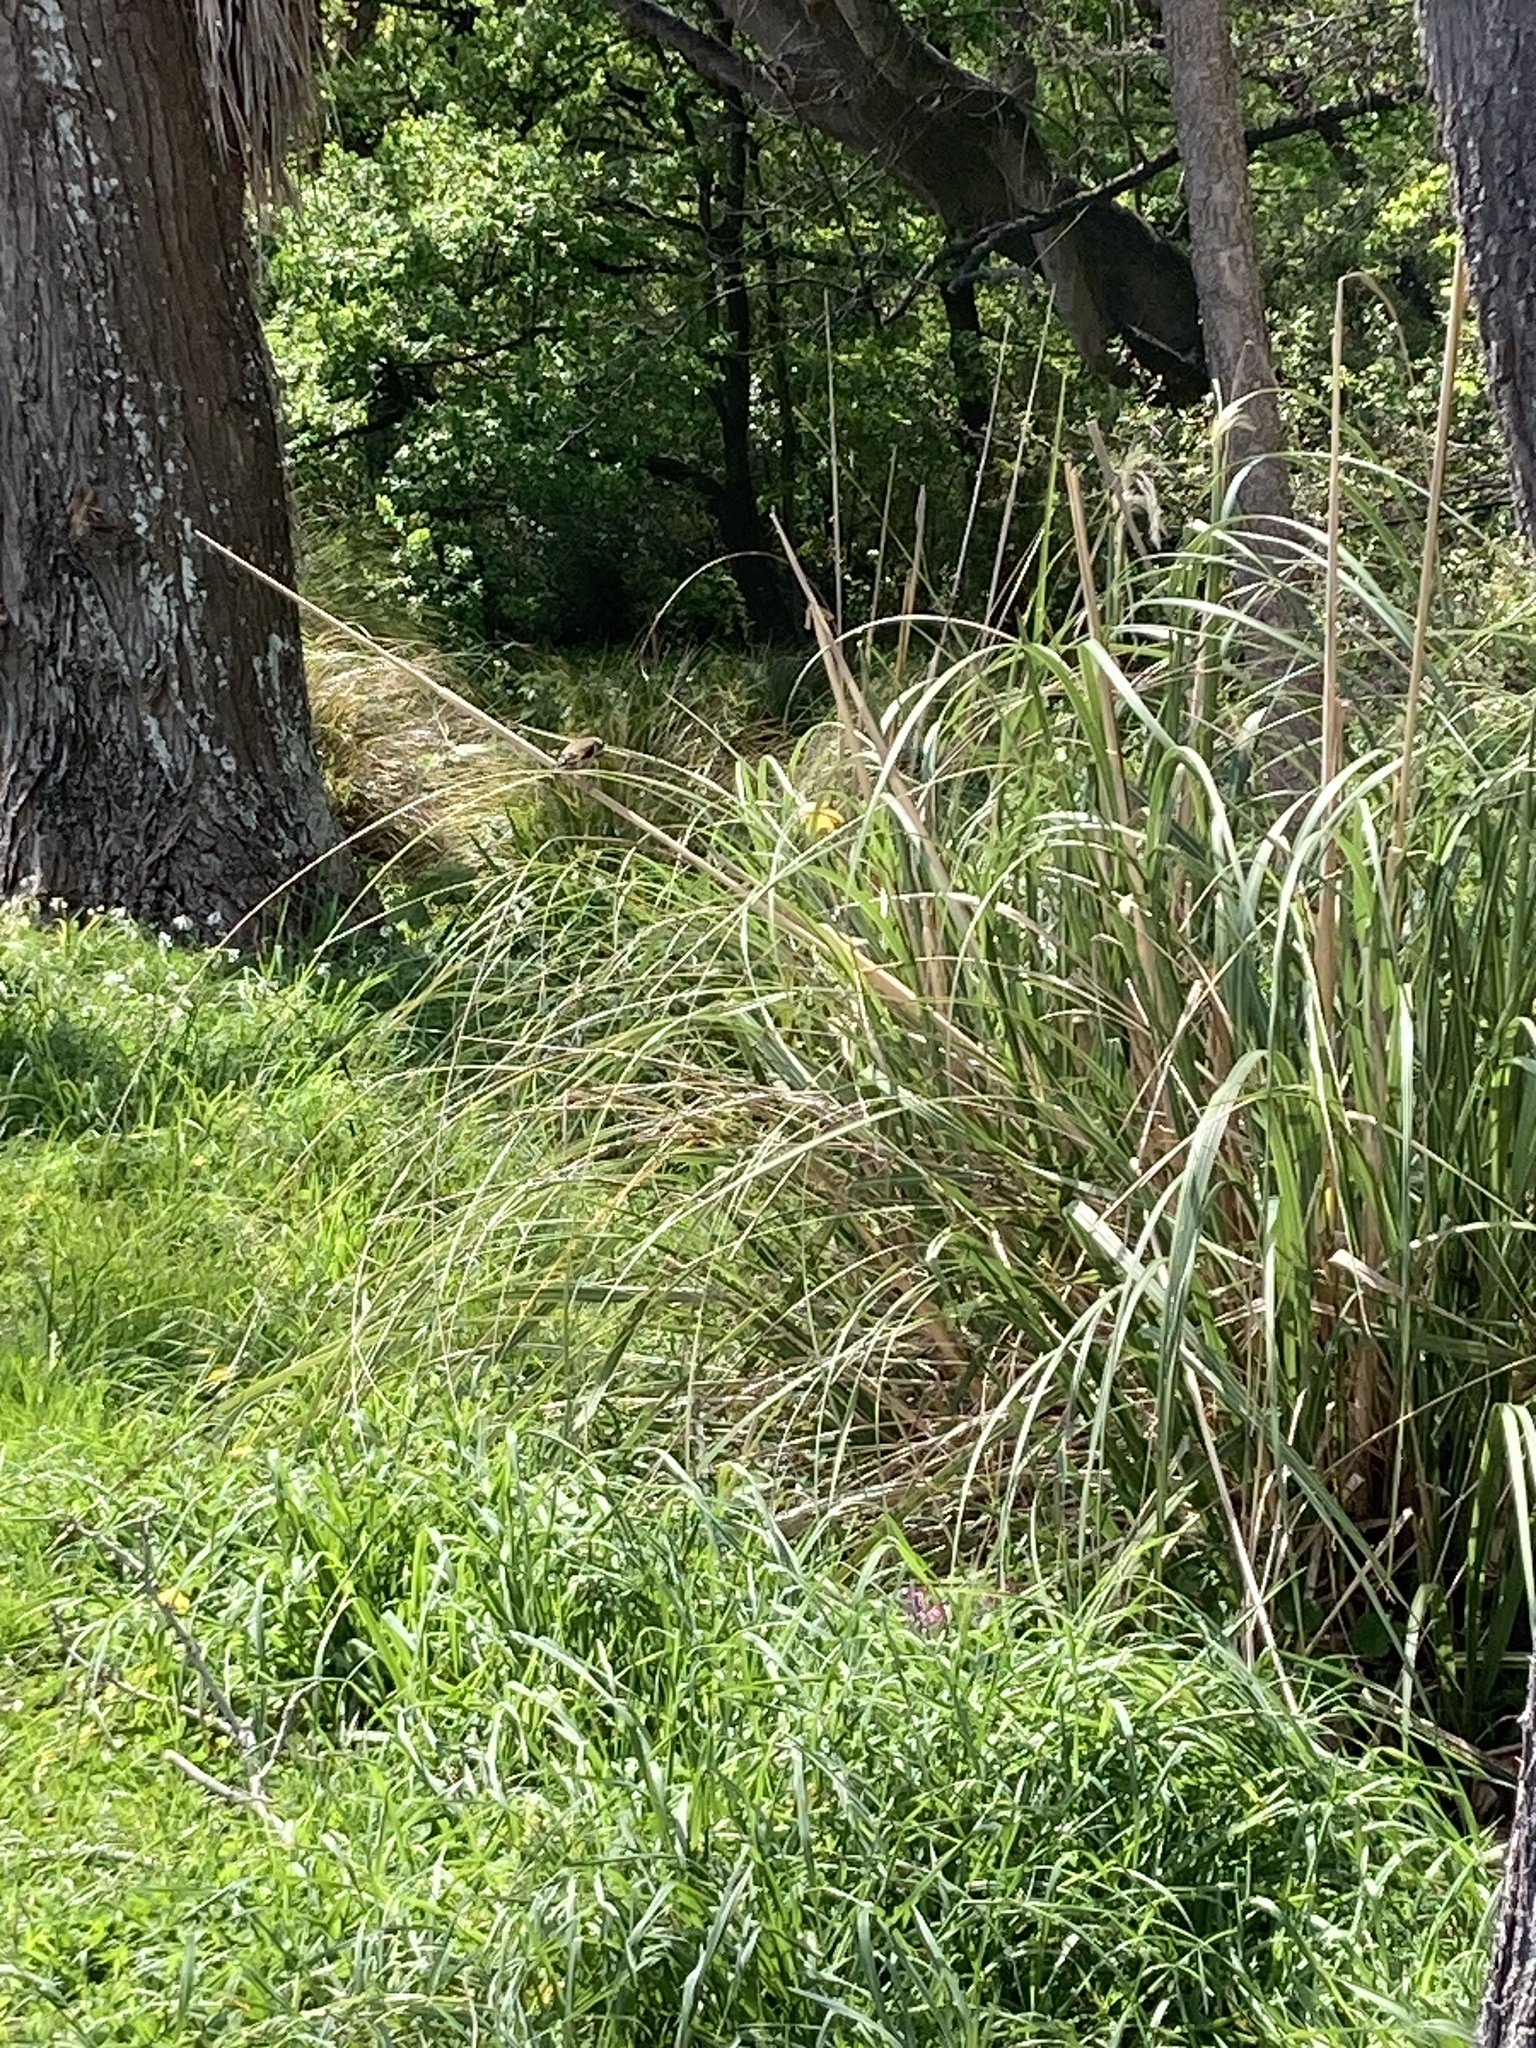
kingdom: Animalia
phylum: Chordata
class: Aves
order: Passeriformes
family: Fringillidae
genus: Carduelis
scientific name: Carduelis carduelis
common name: European goldfinch
